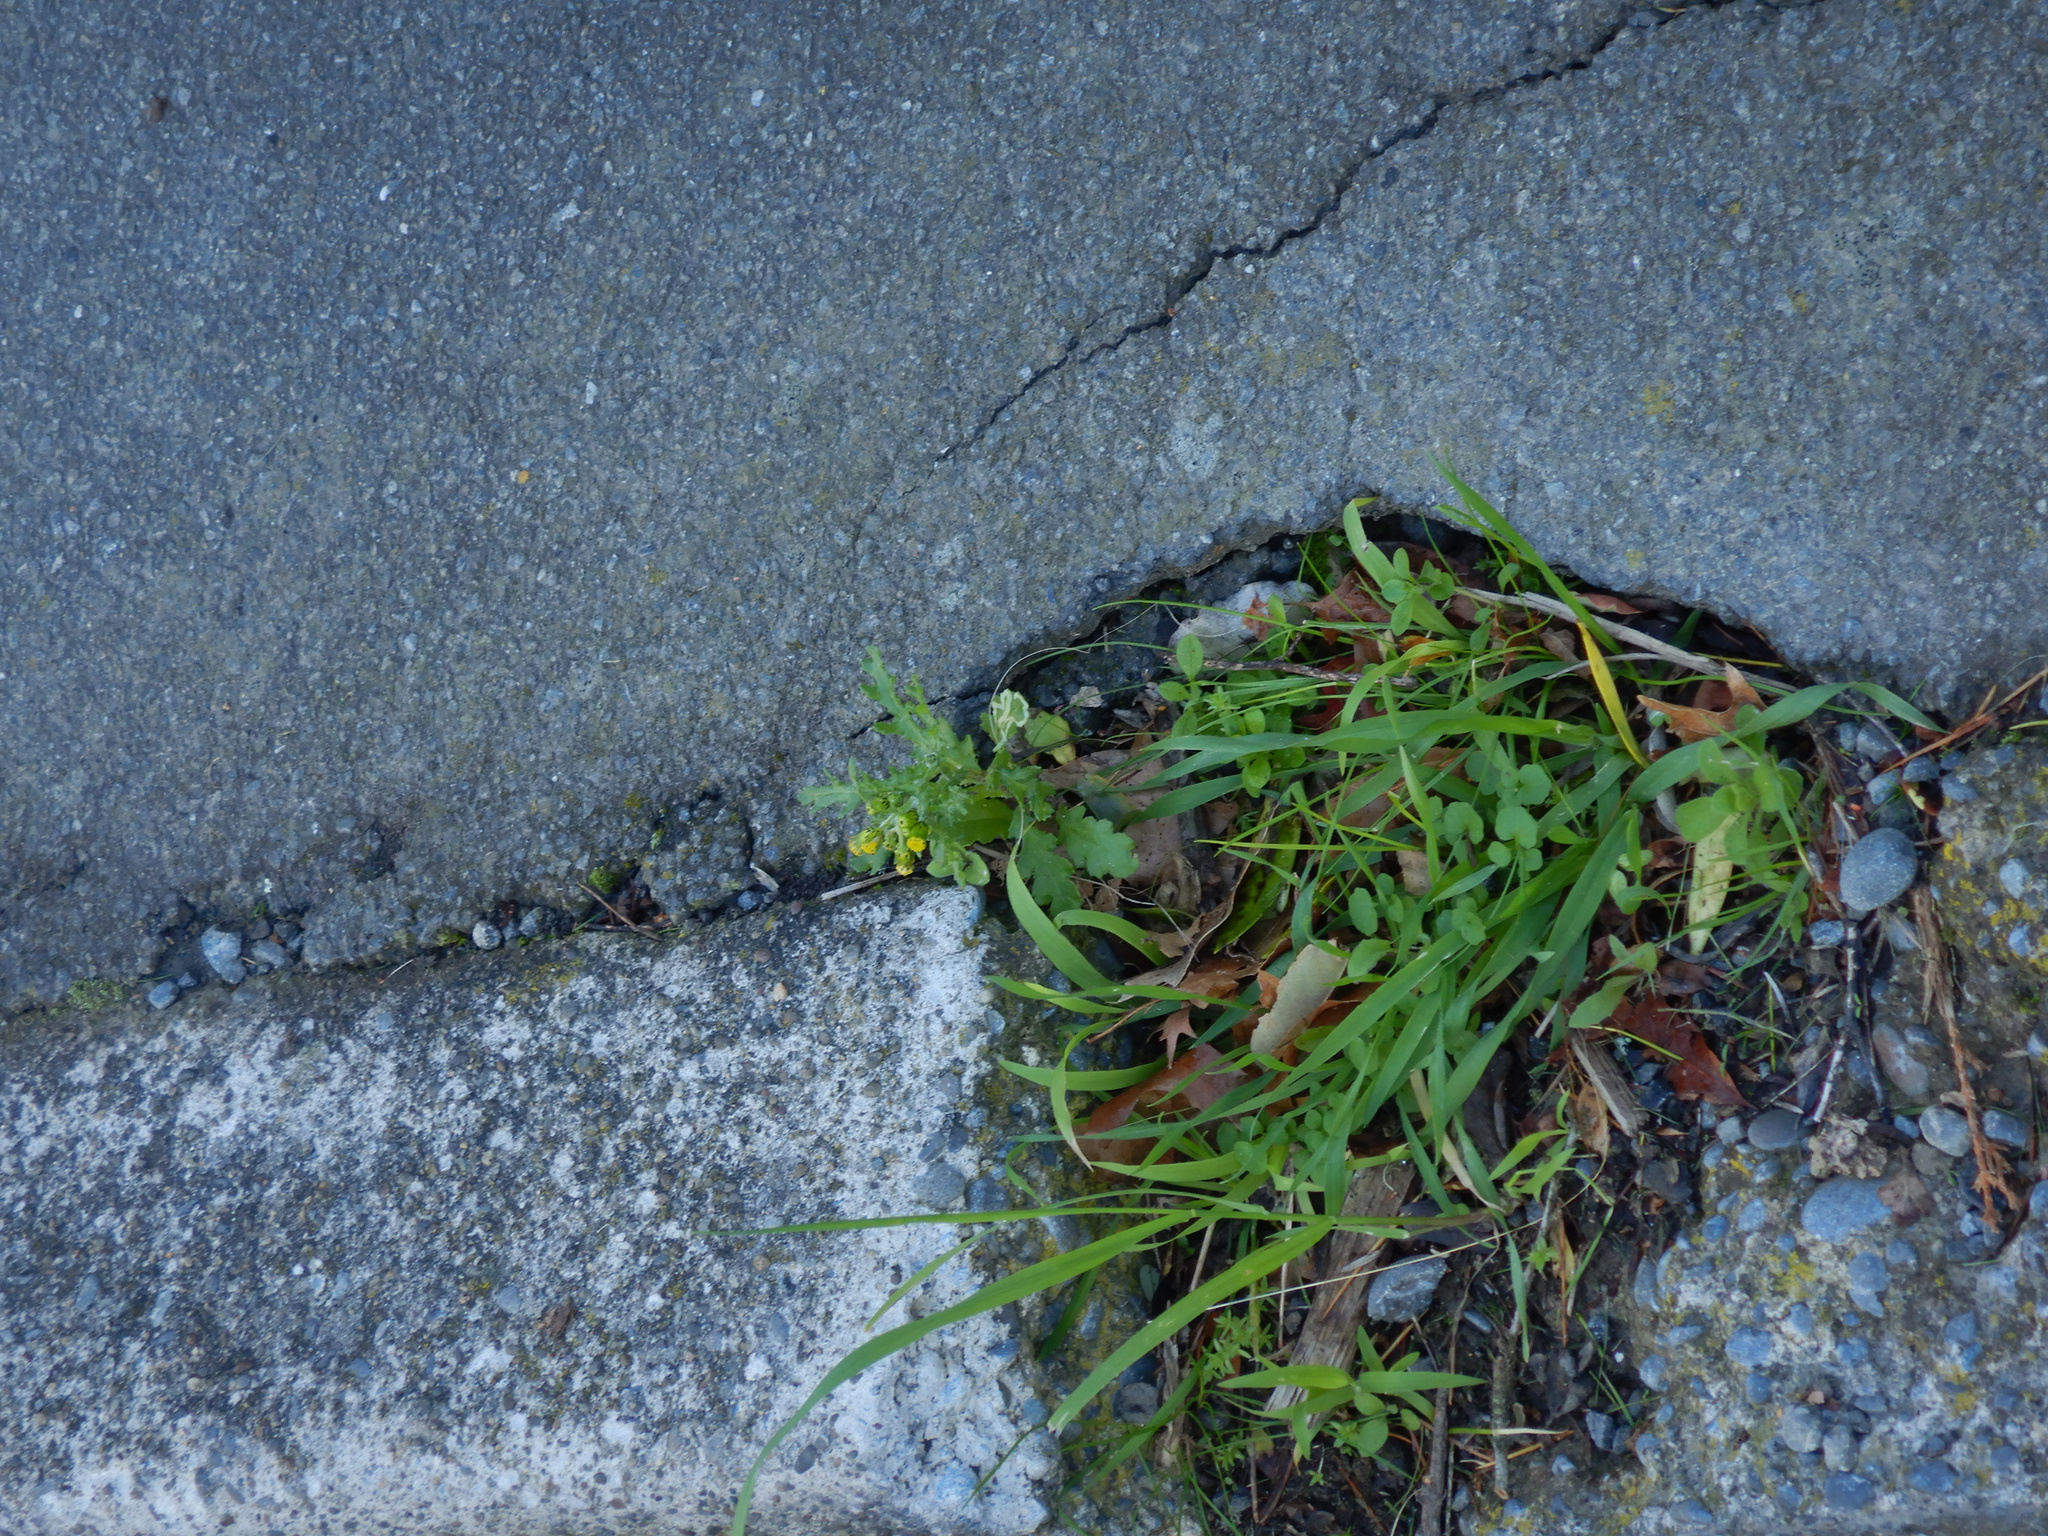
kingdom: Plantae
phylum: Tracheophyta
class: Magnoliopsida
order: Asterales
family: Asteraceae
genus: Senecio
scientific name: Senecio vulgaris
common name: Old-man-in-the-spring
